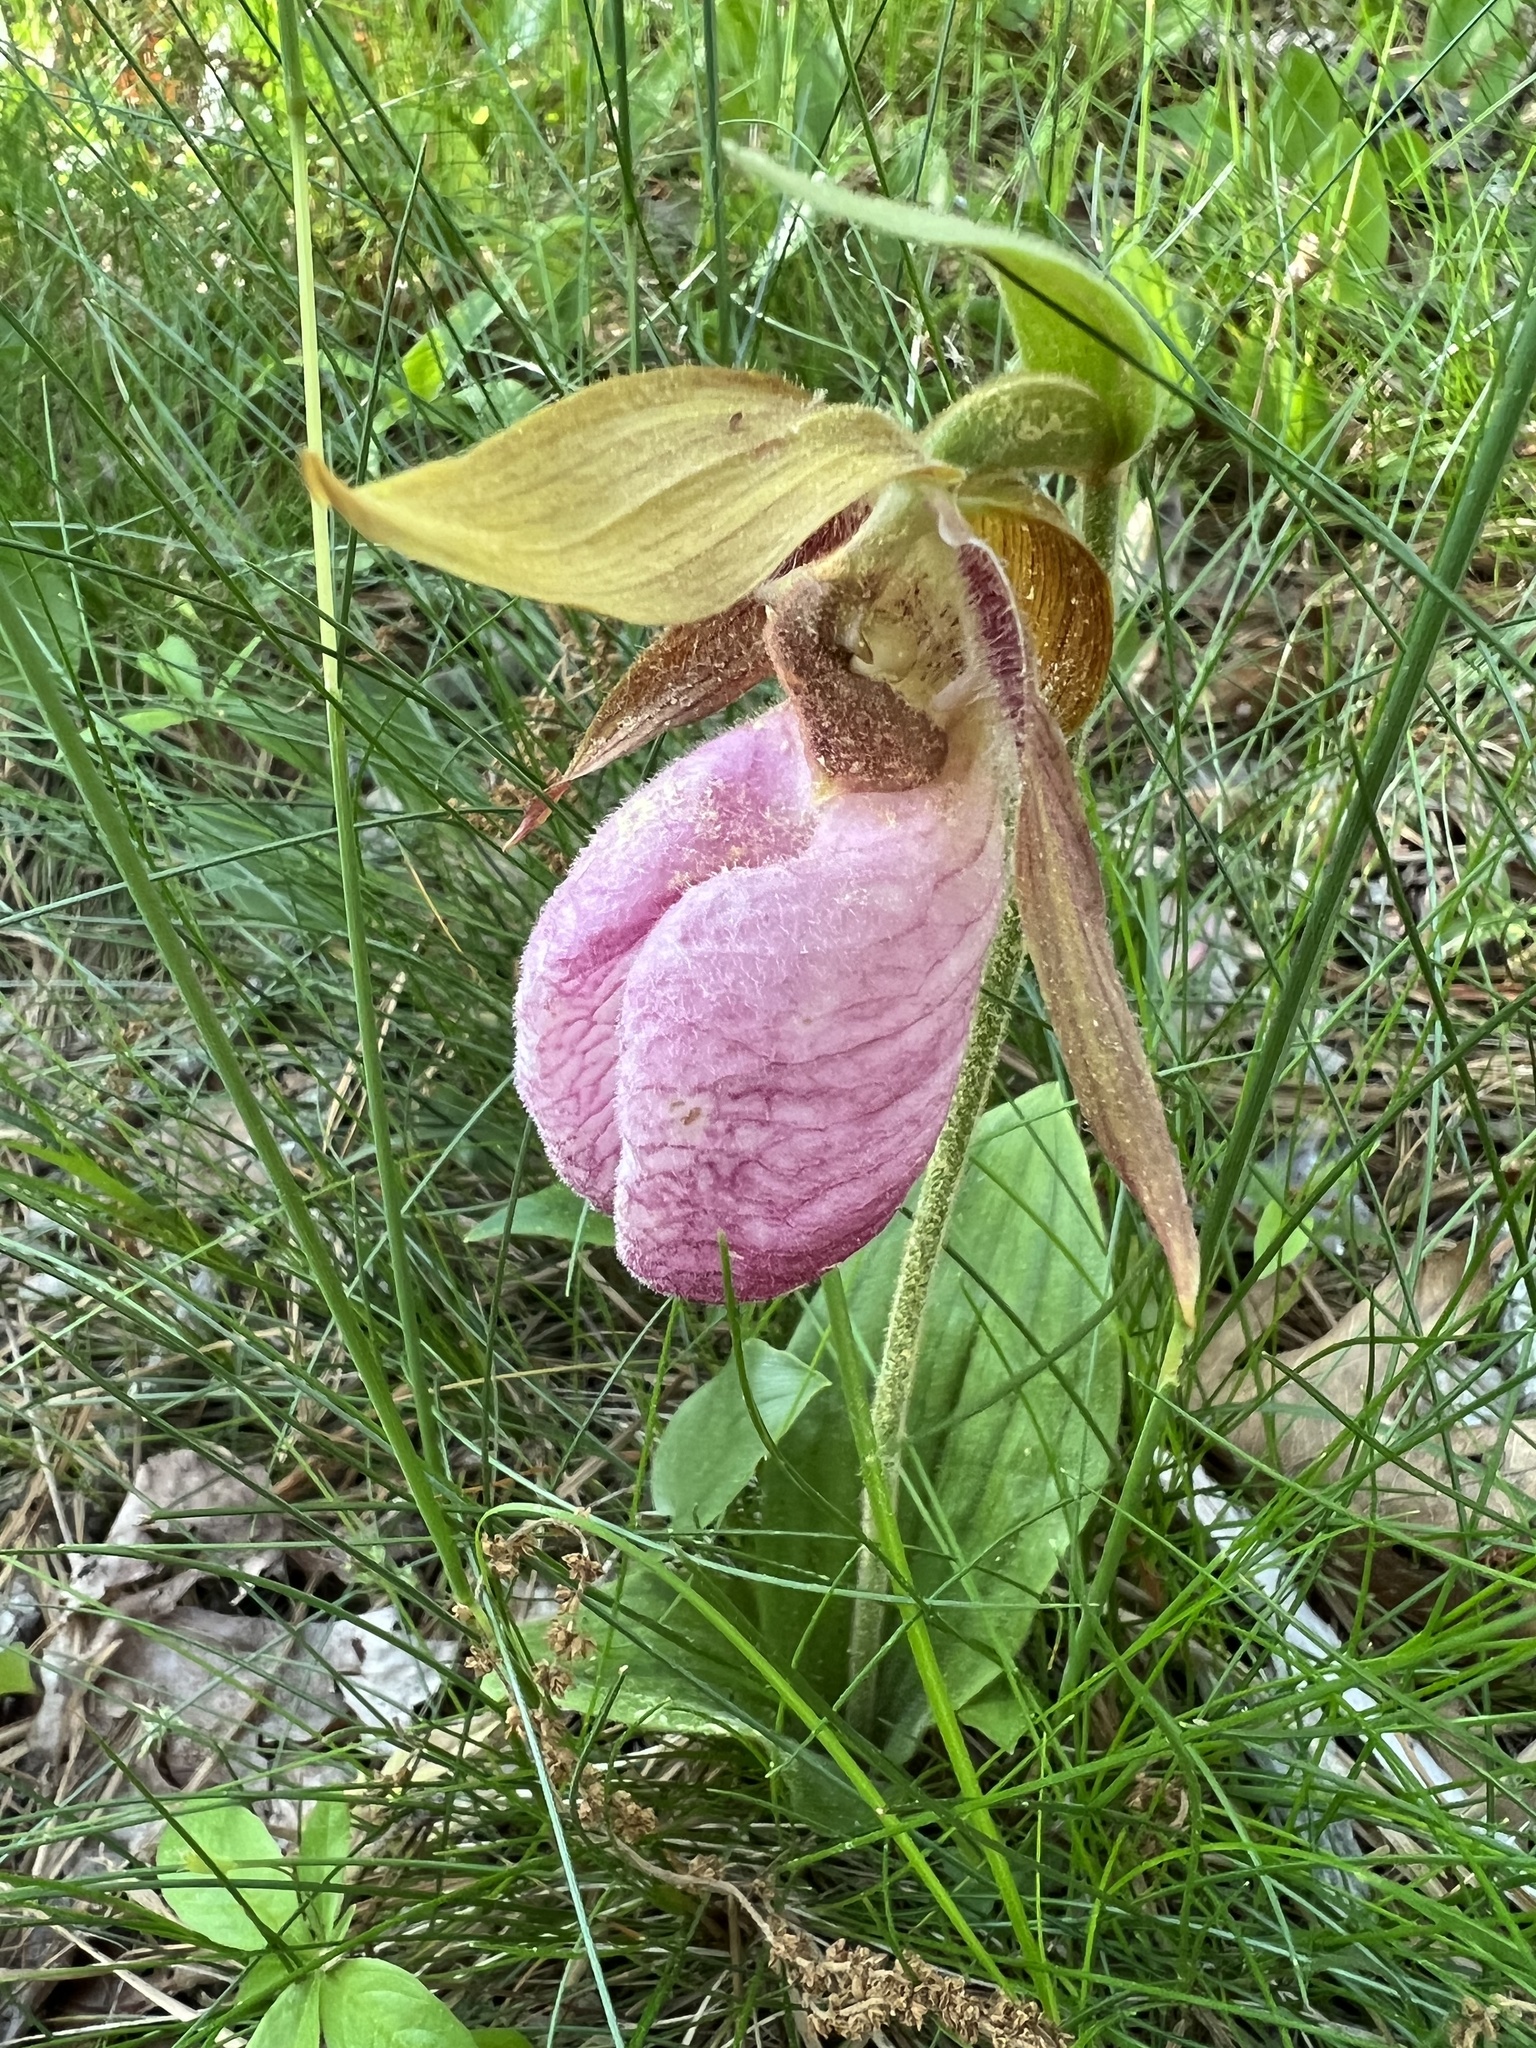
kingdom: Plantae
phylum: Tracheophyta
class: Liliopsida
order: Asparagales
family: Orchidaceae
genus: Cypripedium
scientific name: Cypripedium acaule
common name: Pink lady's-slipper
